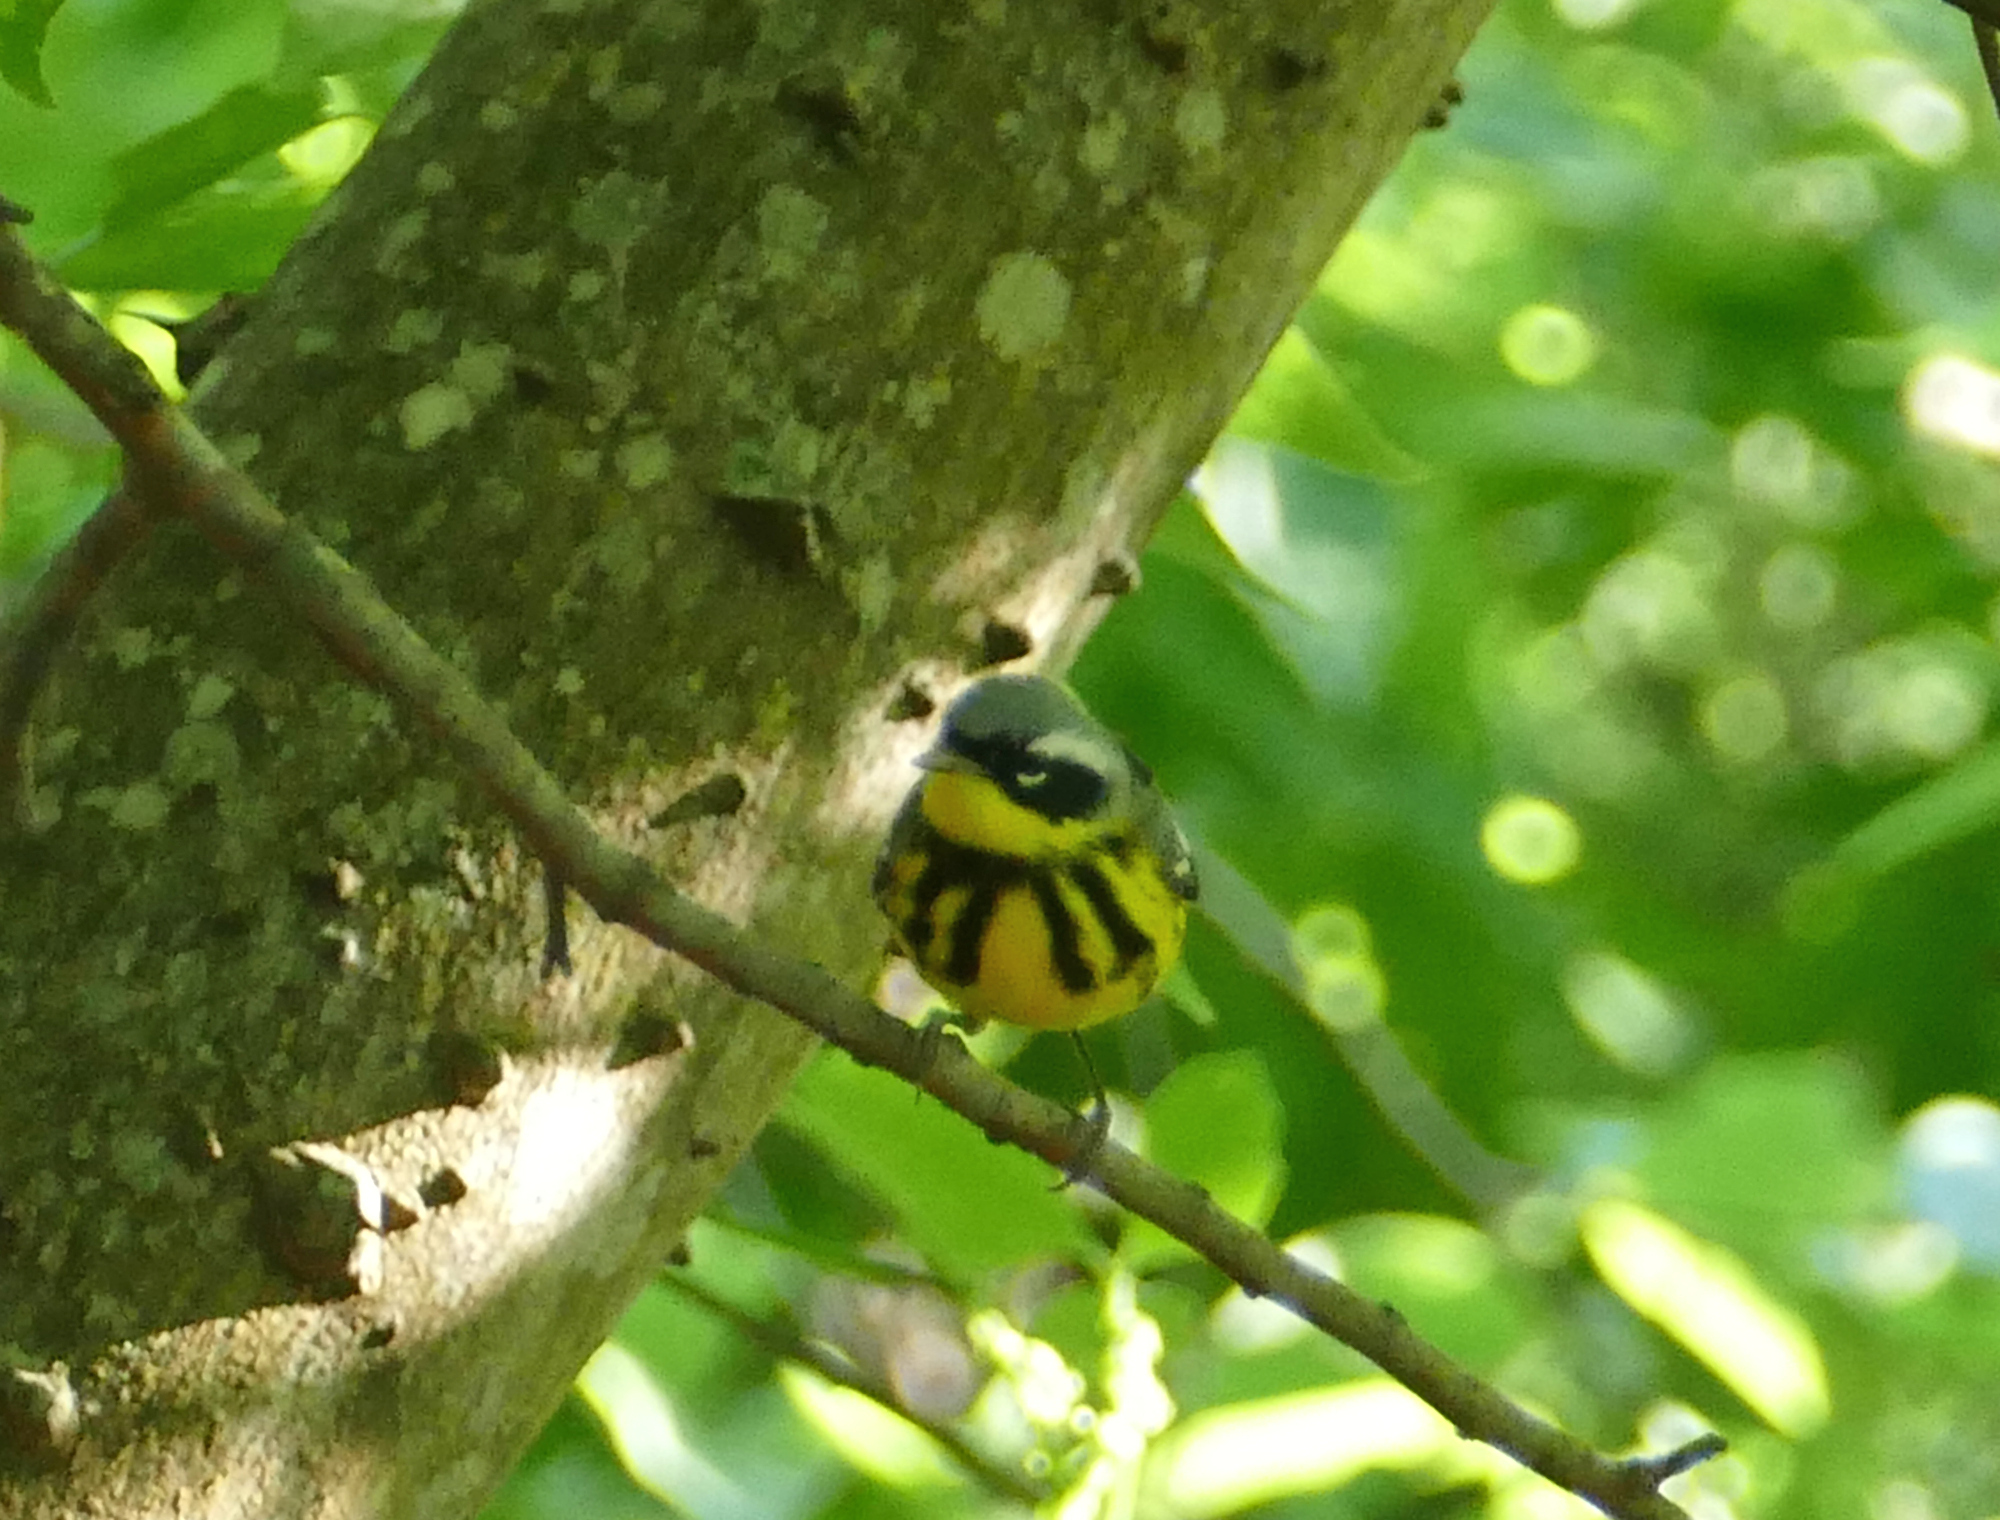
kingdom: Animalia
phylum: Chordata
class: Aves
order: Passeriformes
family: Parulidae
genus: Setophaga
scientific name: Setophaga magnolia
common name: Magnolia warbler
